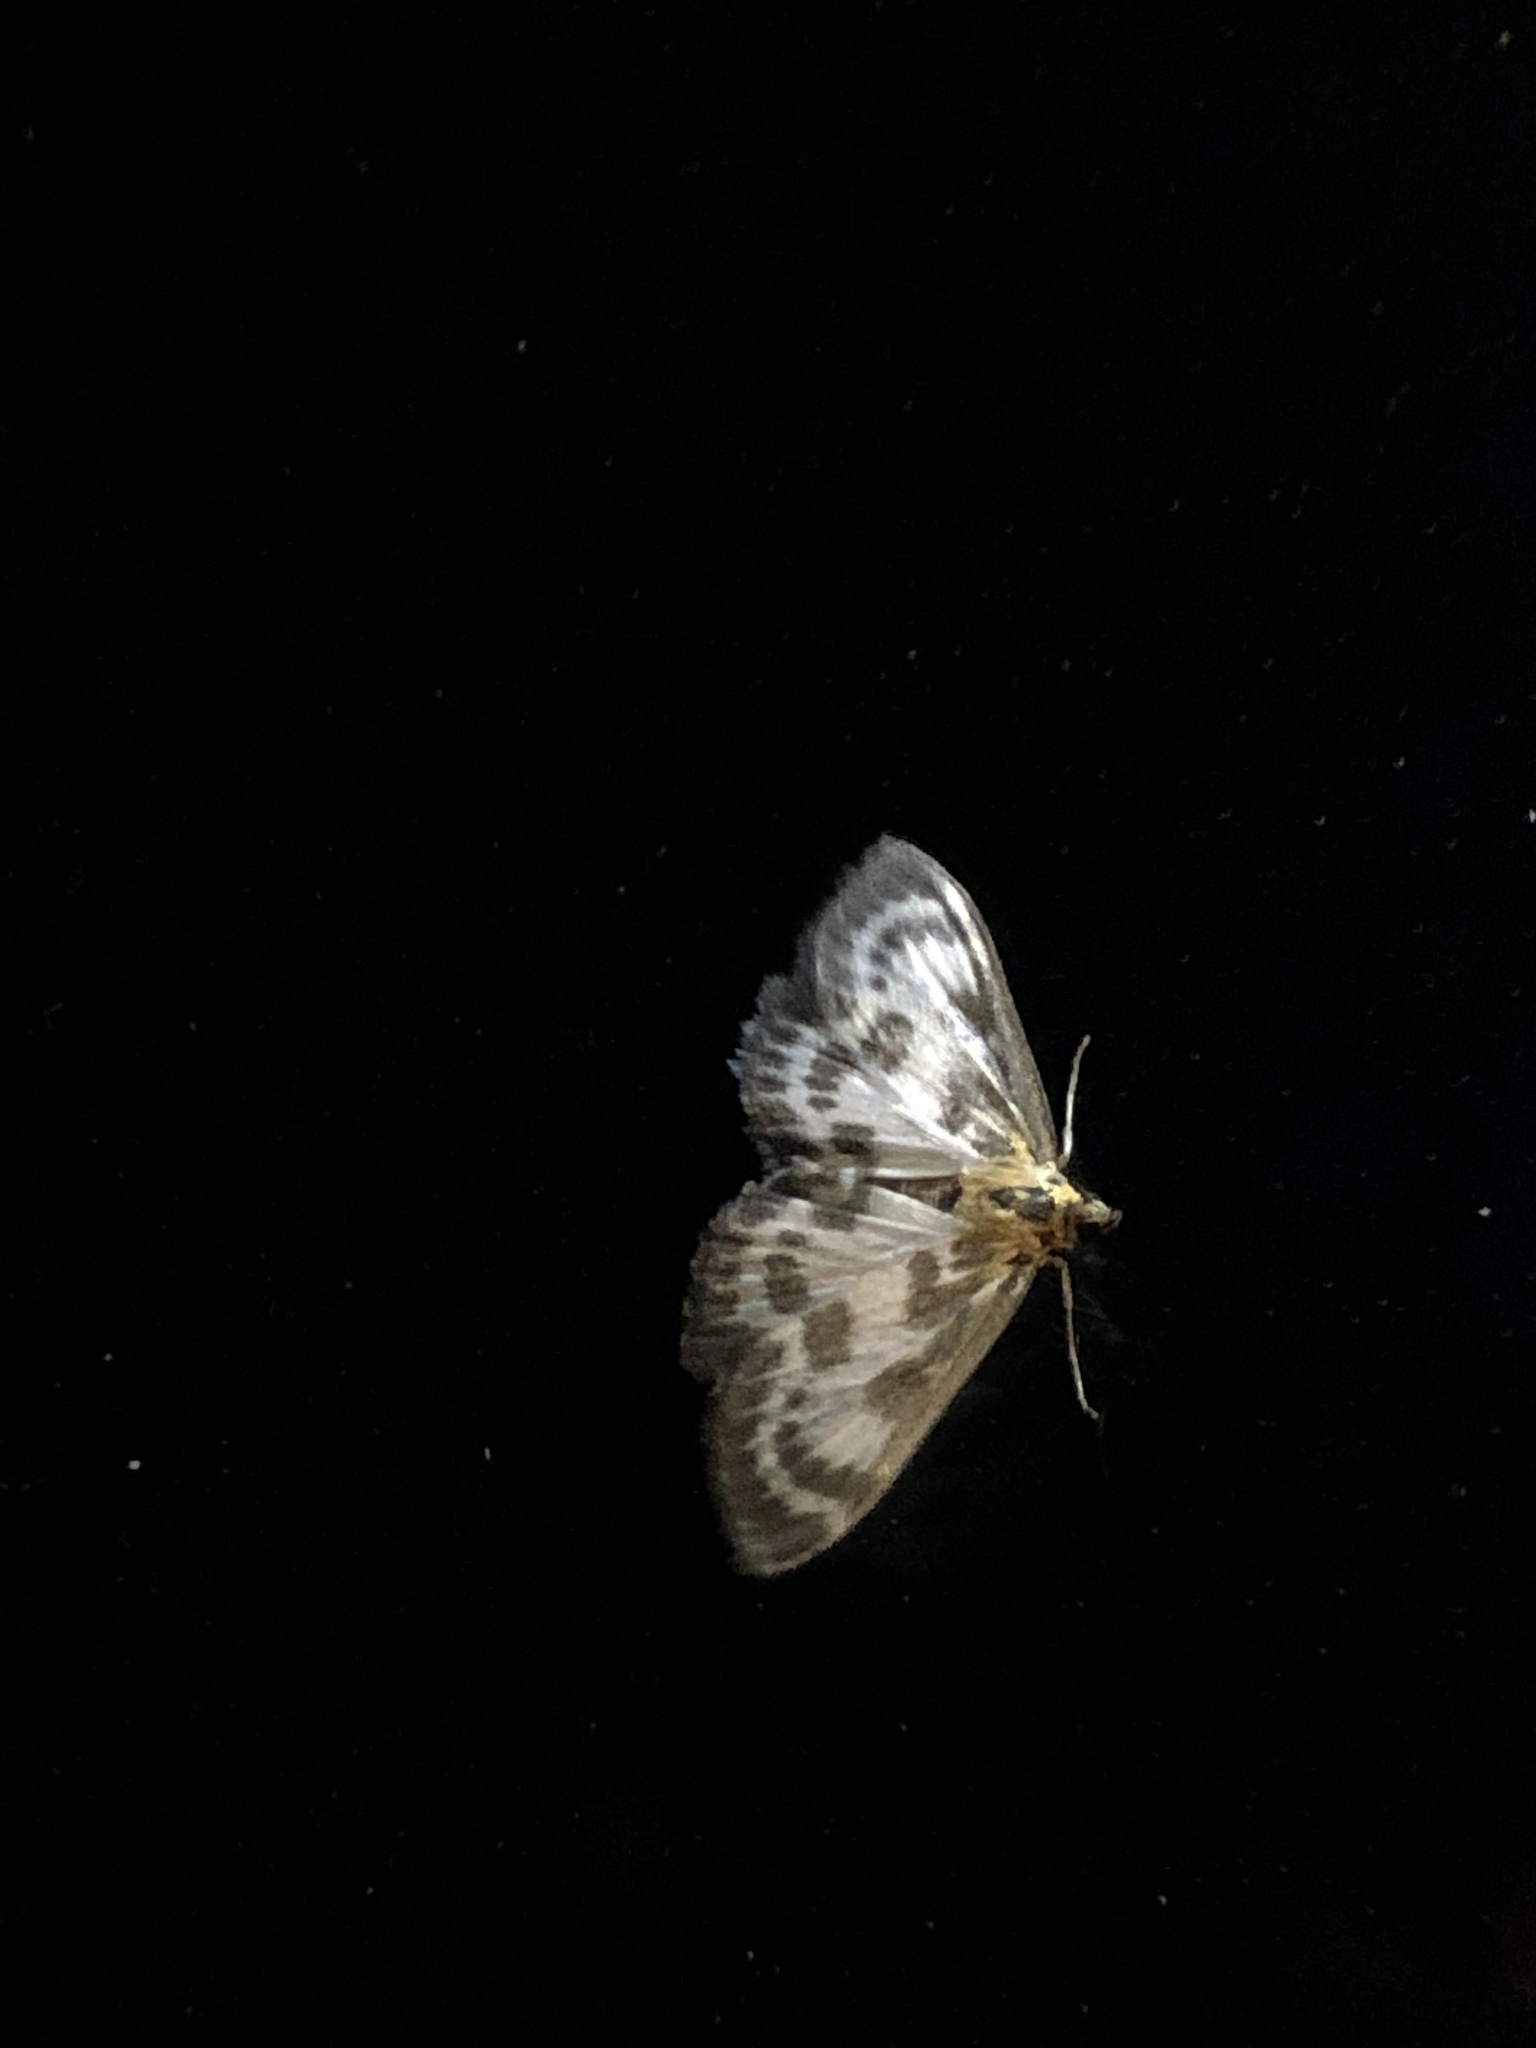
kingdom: Animalia
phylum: Arthropoda
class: Insecta
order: Lepidoptera
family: Crambidae
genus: Anania
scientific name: Anania hortulata
